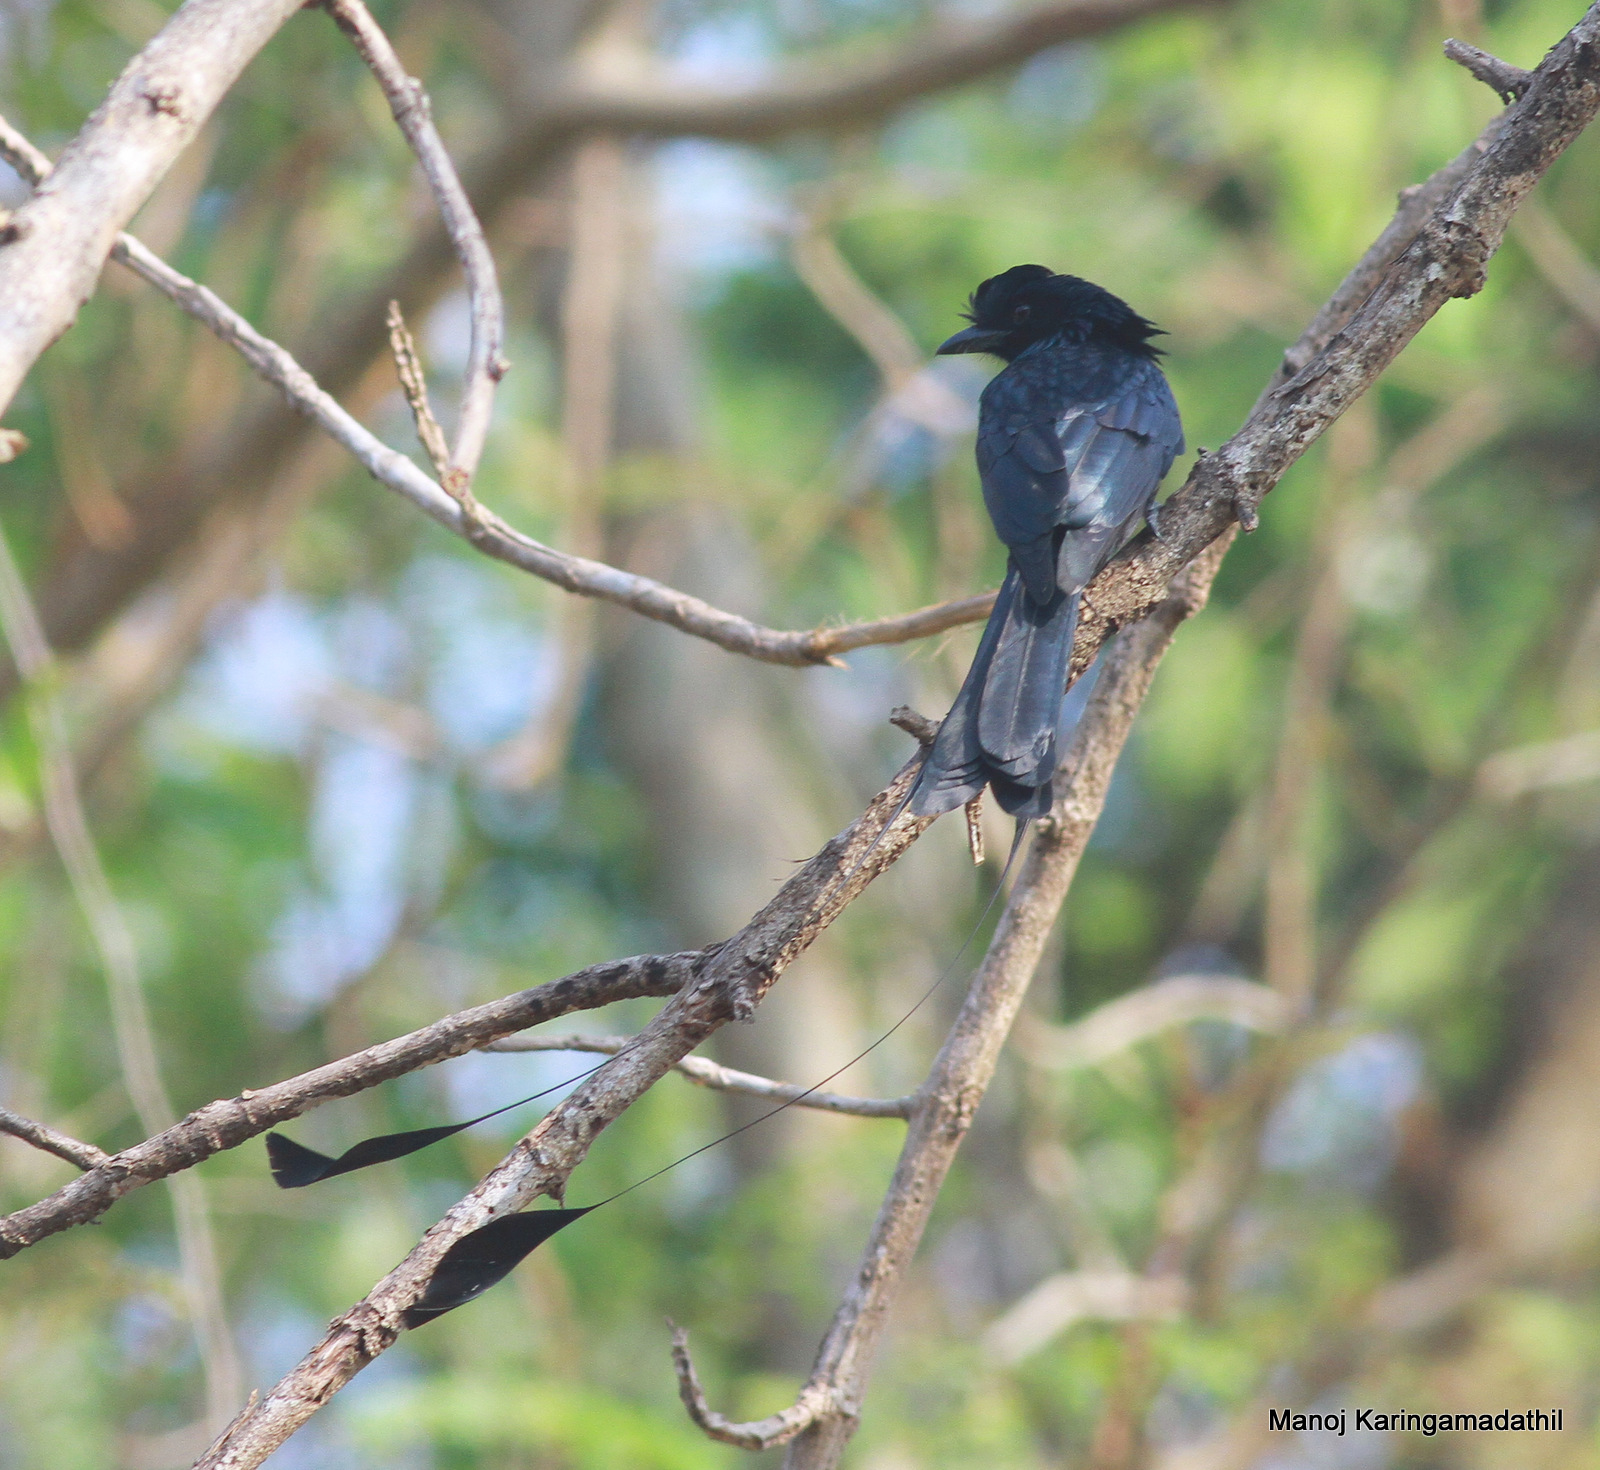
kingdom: Animalia
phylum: Chordata
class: Aves
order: Passeriformes
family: Dicruridae
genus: Dicrurus
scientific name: Dicrurus paradiseus
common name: Greater racket-tailed drongo
